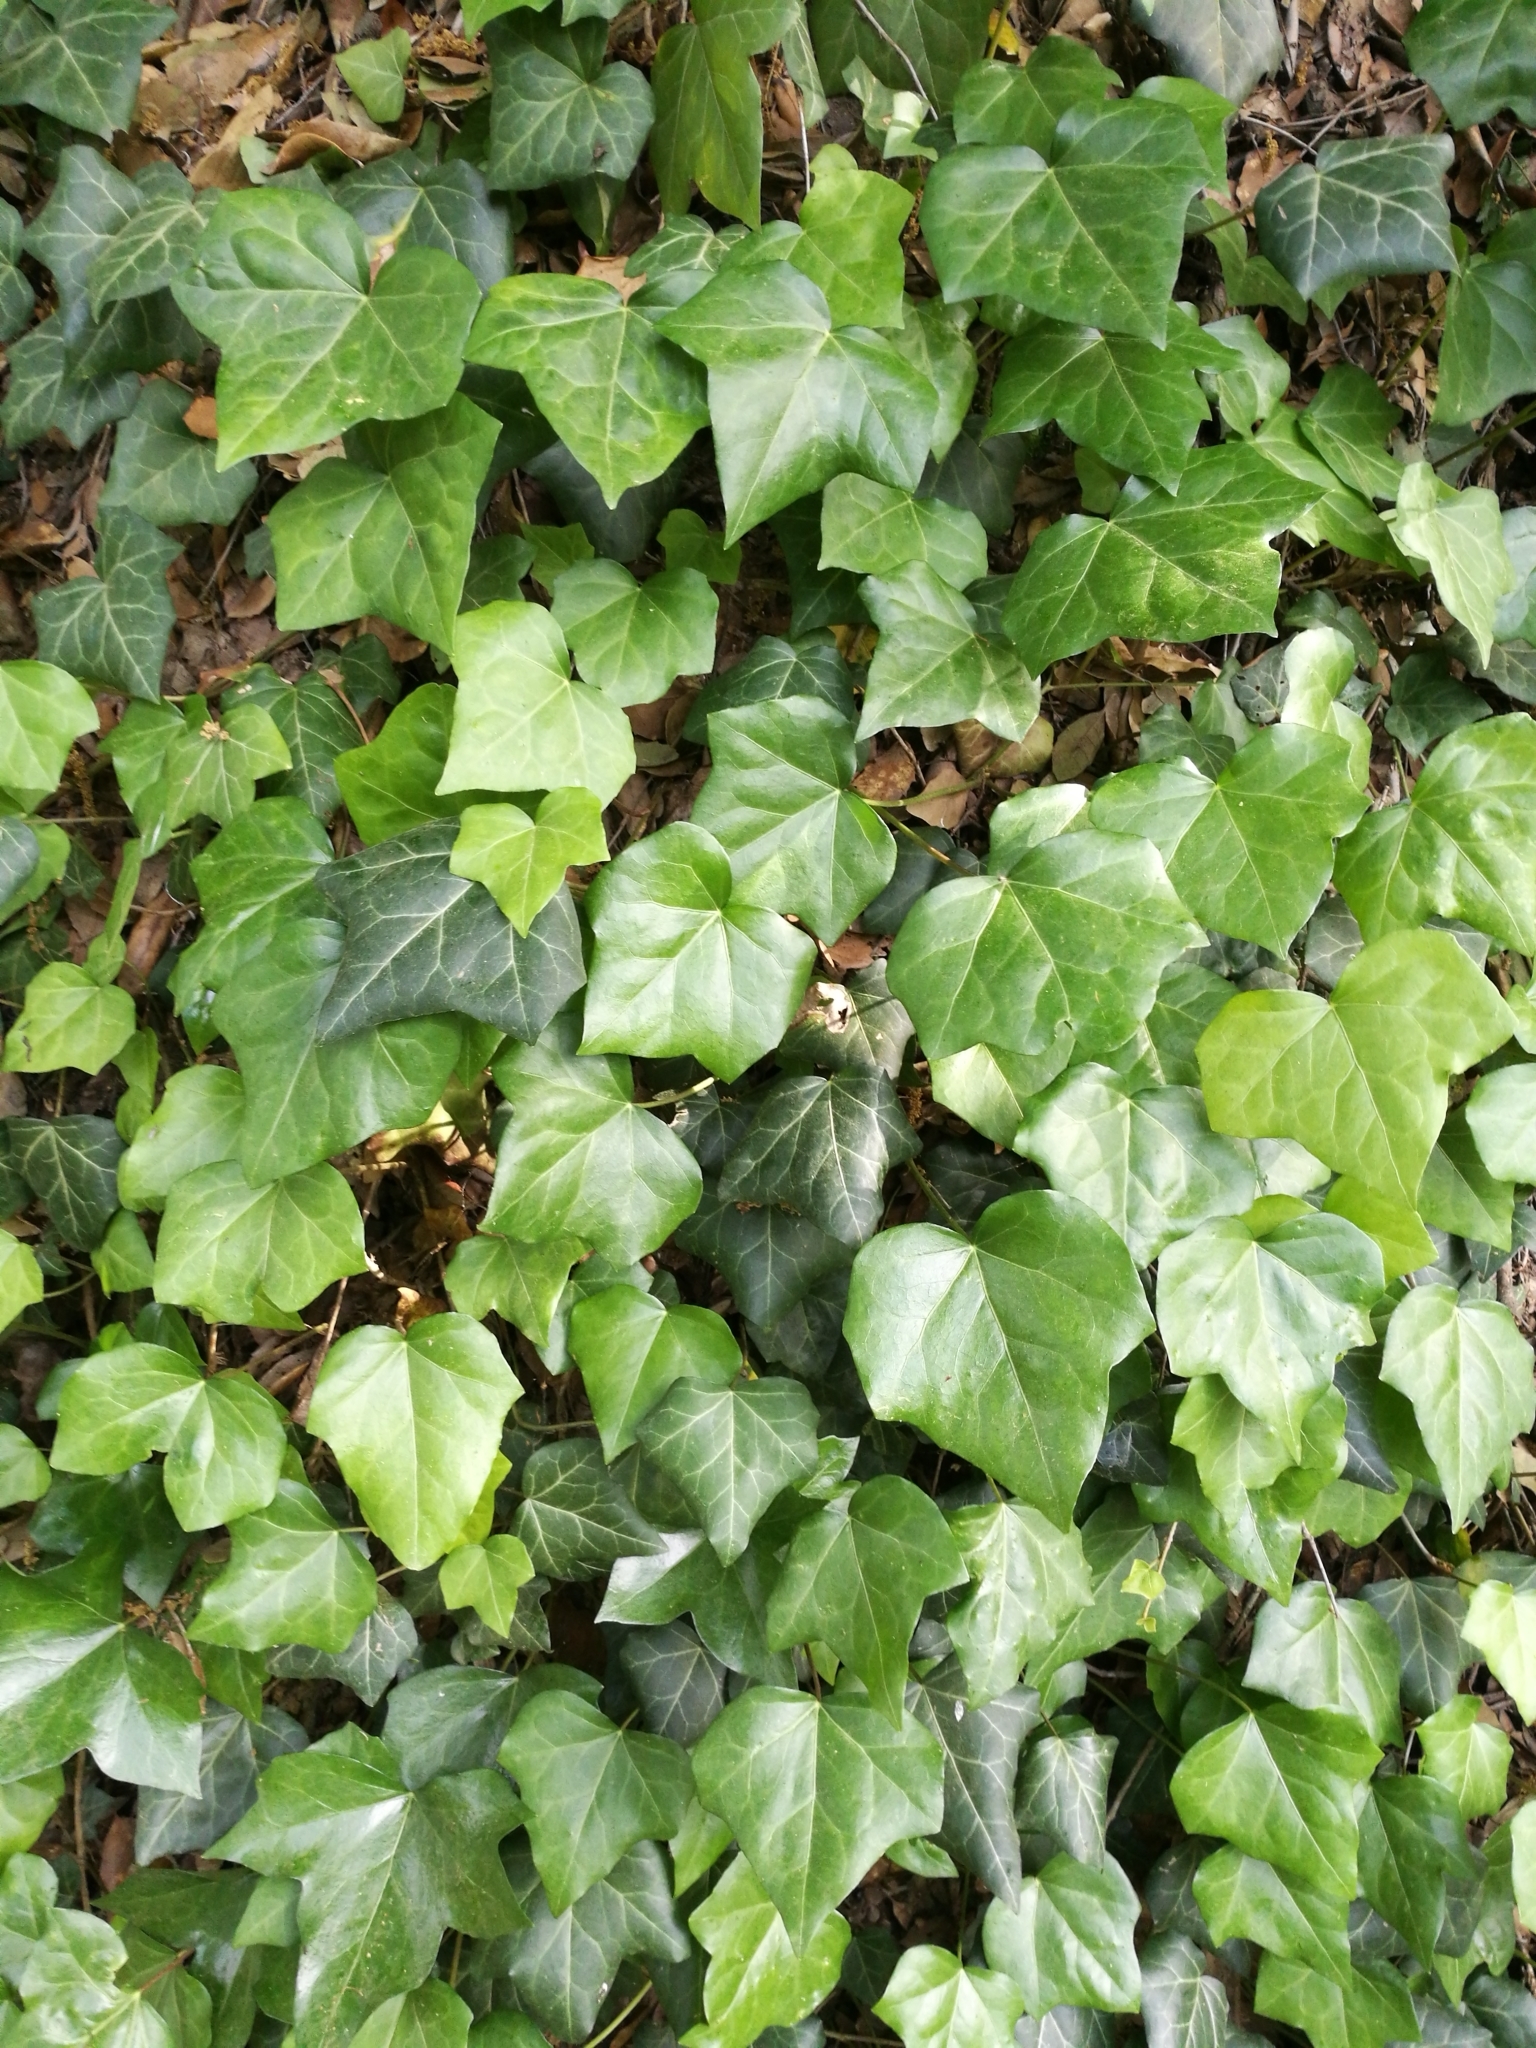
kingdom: Plantae
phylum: Tracheophyta
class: Magnoliopsida
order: Apiales
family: Araliaceae
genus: Hedera
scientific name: Hedera helix
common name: Ivy
